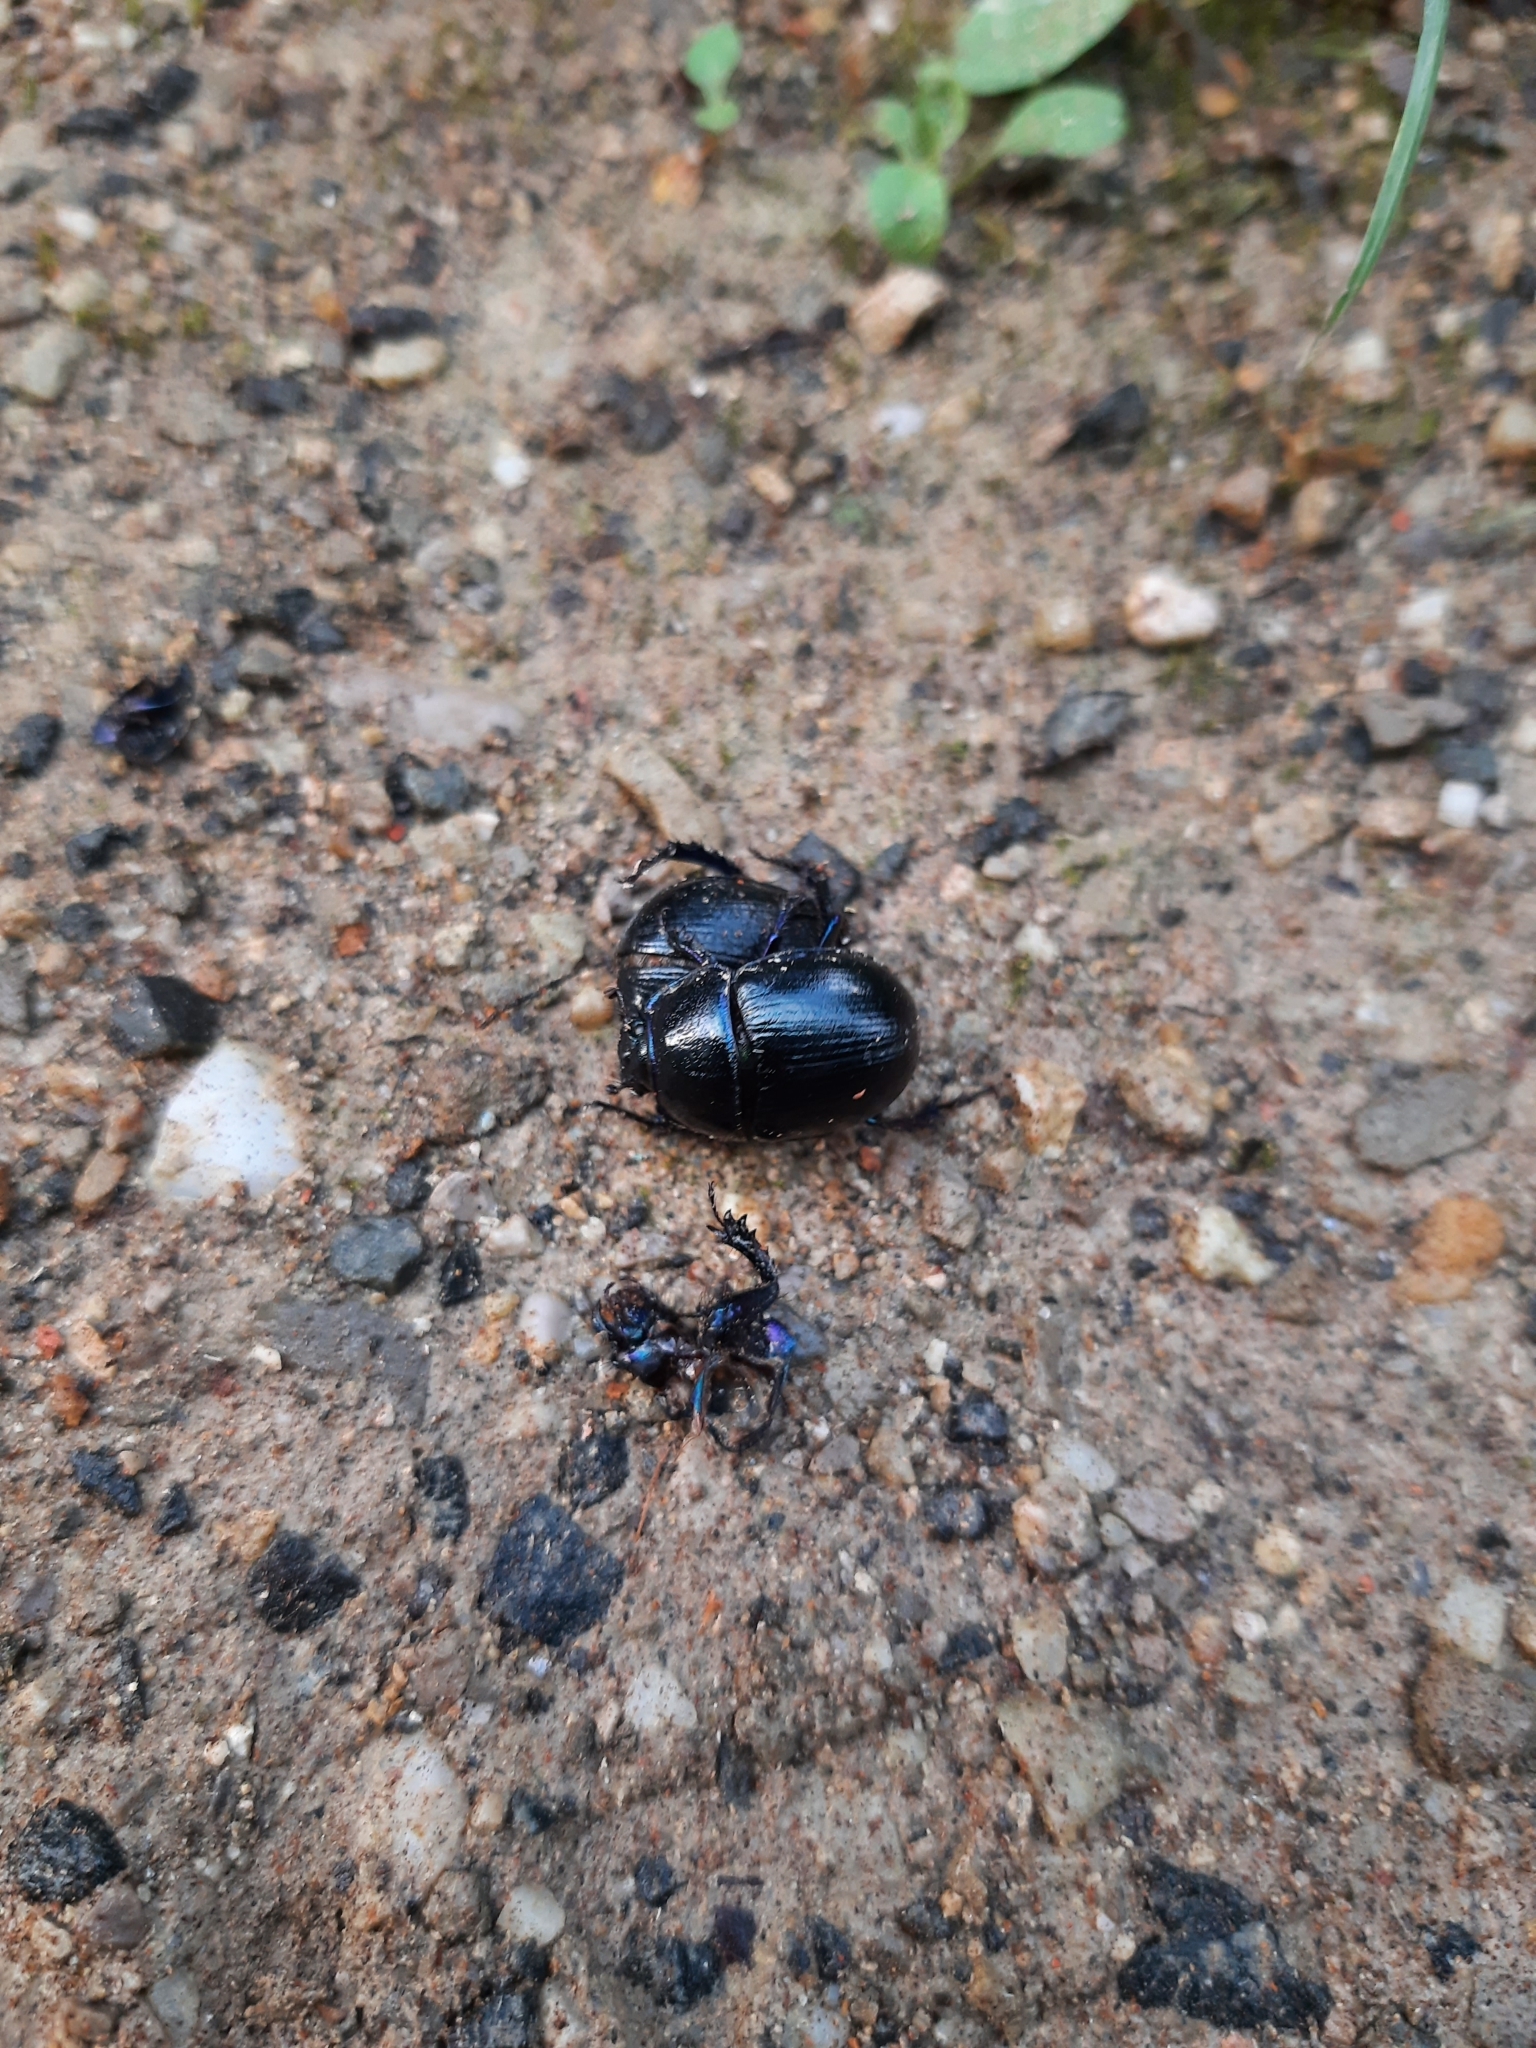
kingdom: Animalia
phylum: Arthropoda
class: Insecta
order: Coleoptera
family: Geotrupidae
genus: Anoplotrupes
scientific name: Anoplotrupes stercorosus
